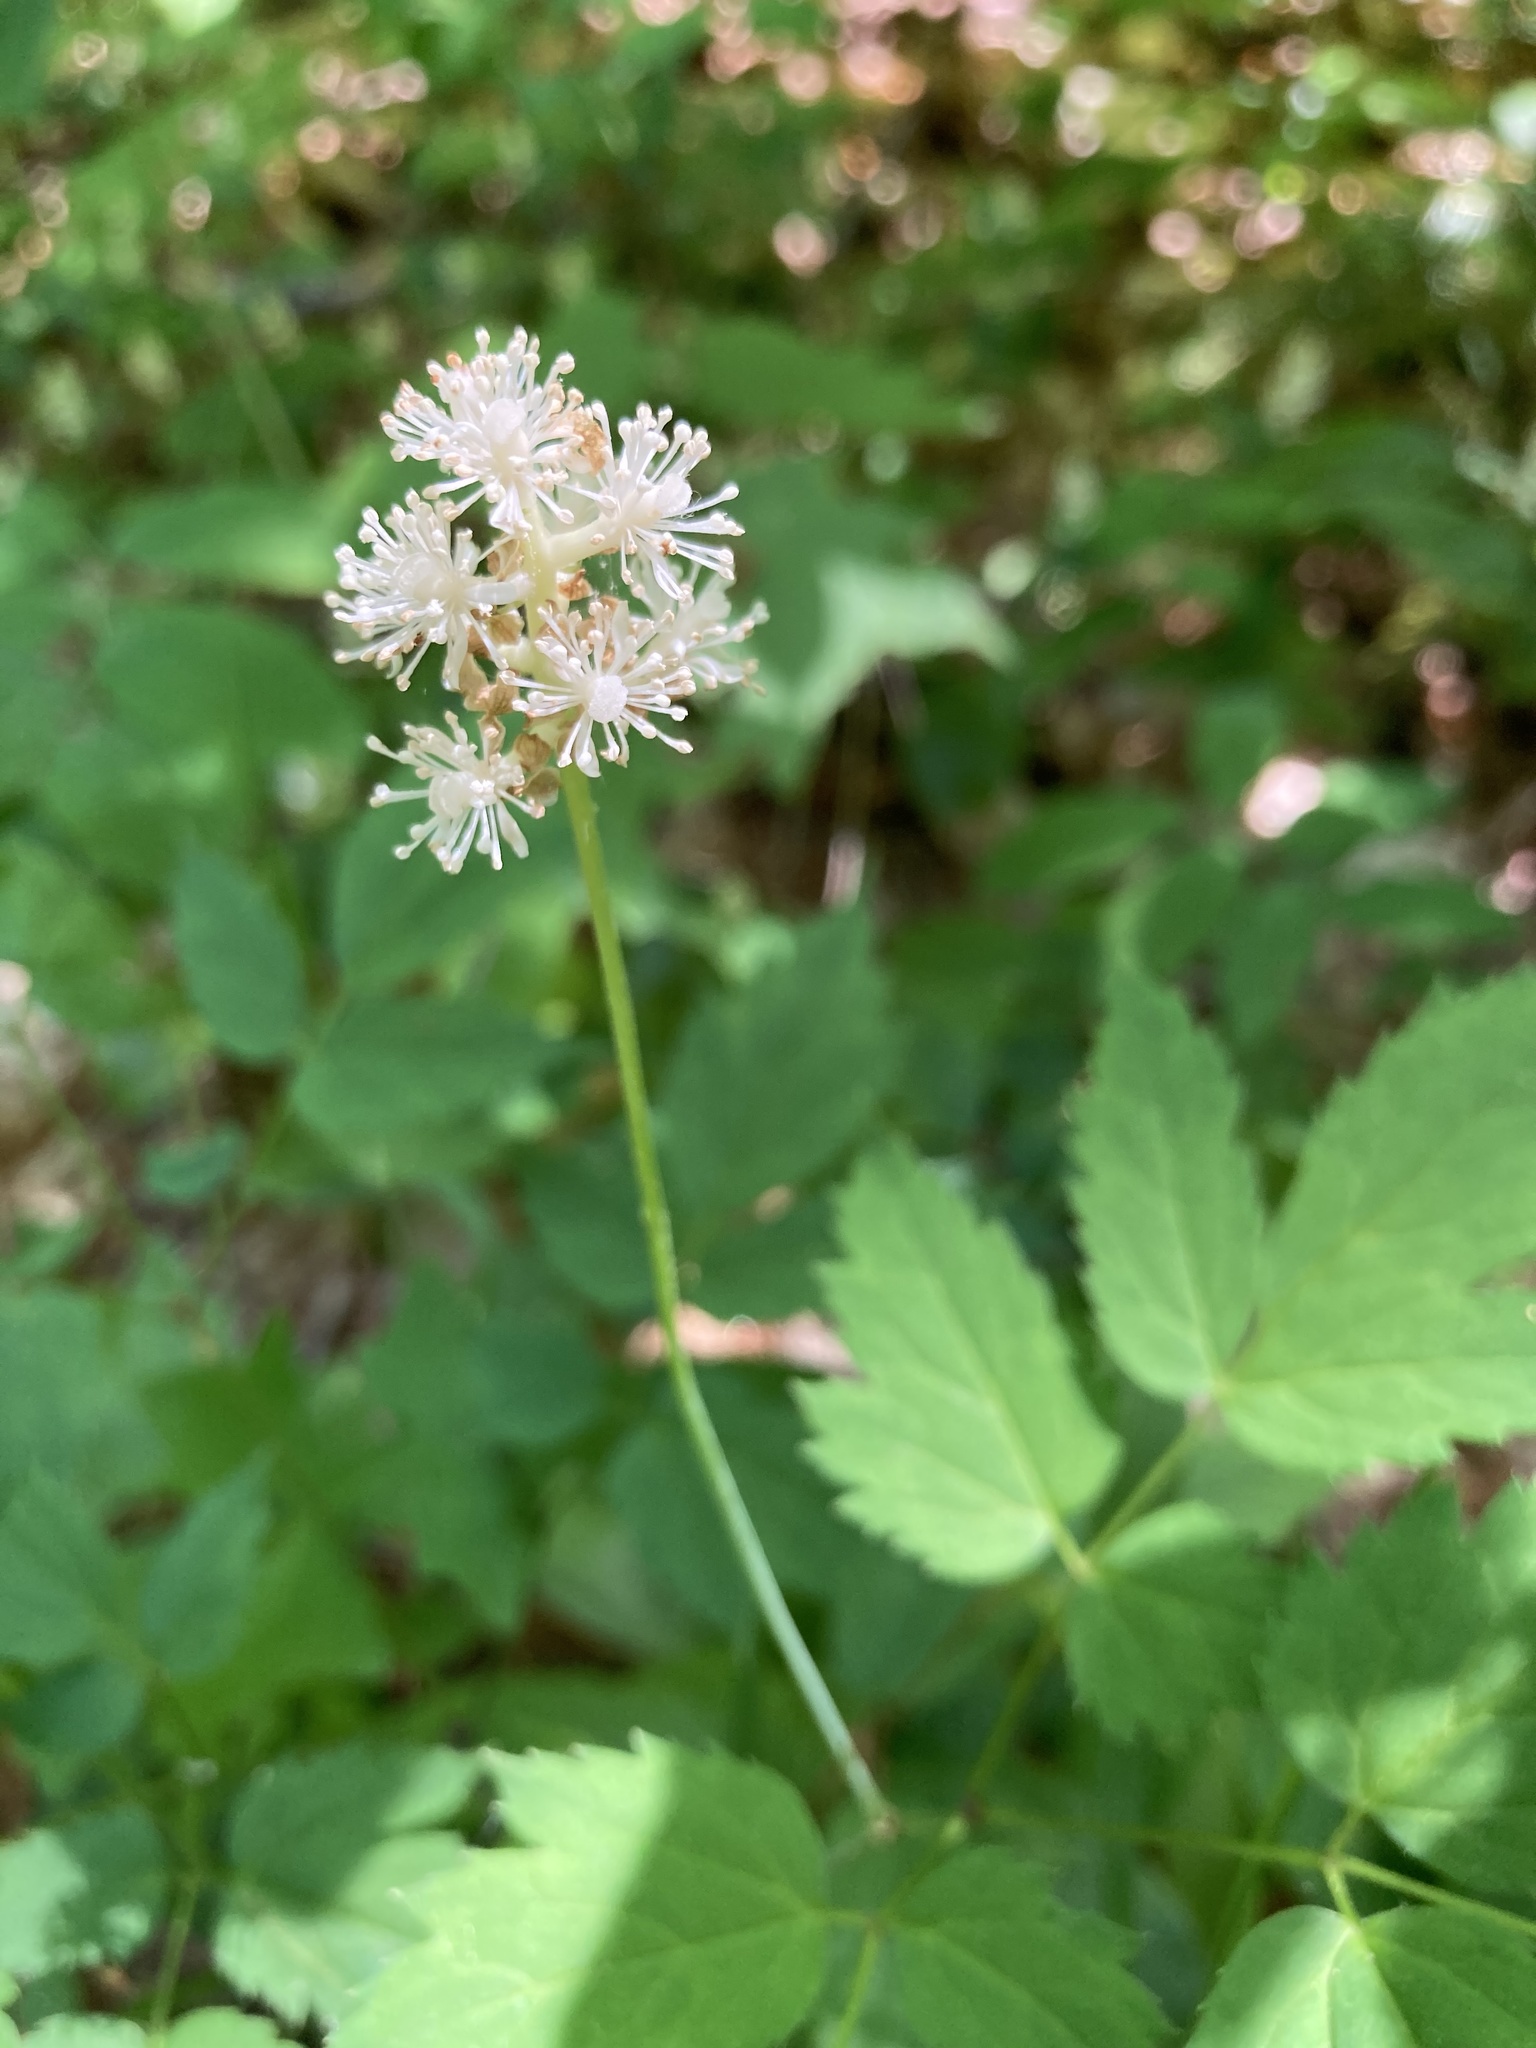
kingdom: Plantae
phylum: Tracheophyta
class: Magnoliopsida
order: Ranunculales
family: Ranunculaceae
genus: Actaea
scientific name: Actaea pachypoda
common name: Doll's-eyes
